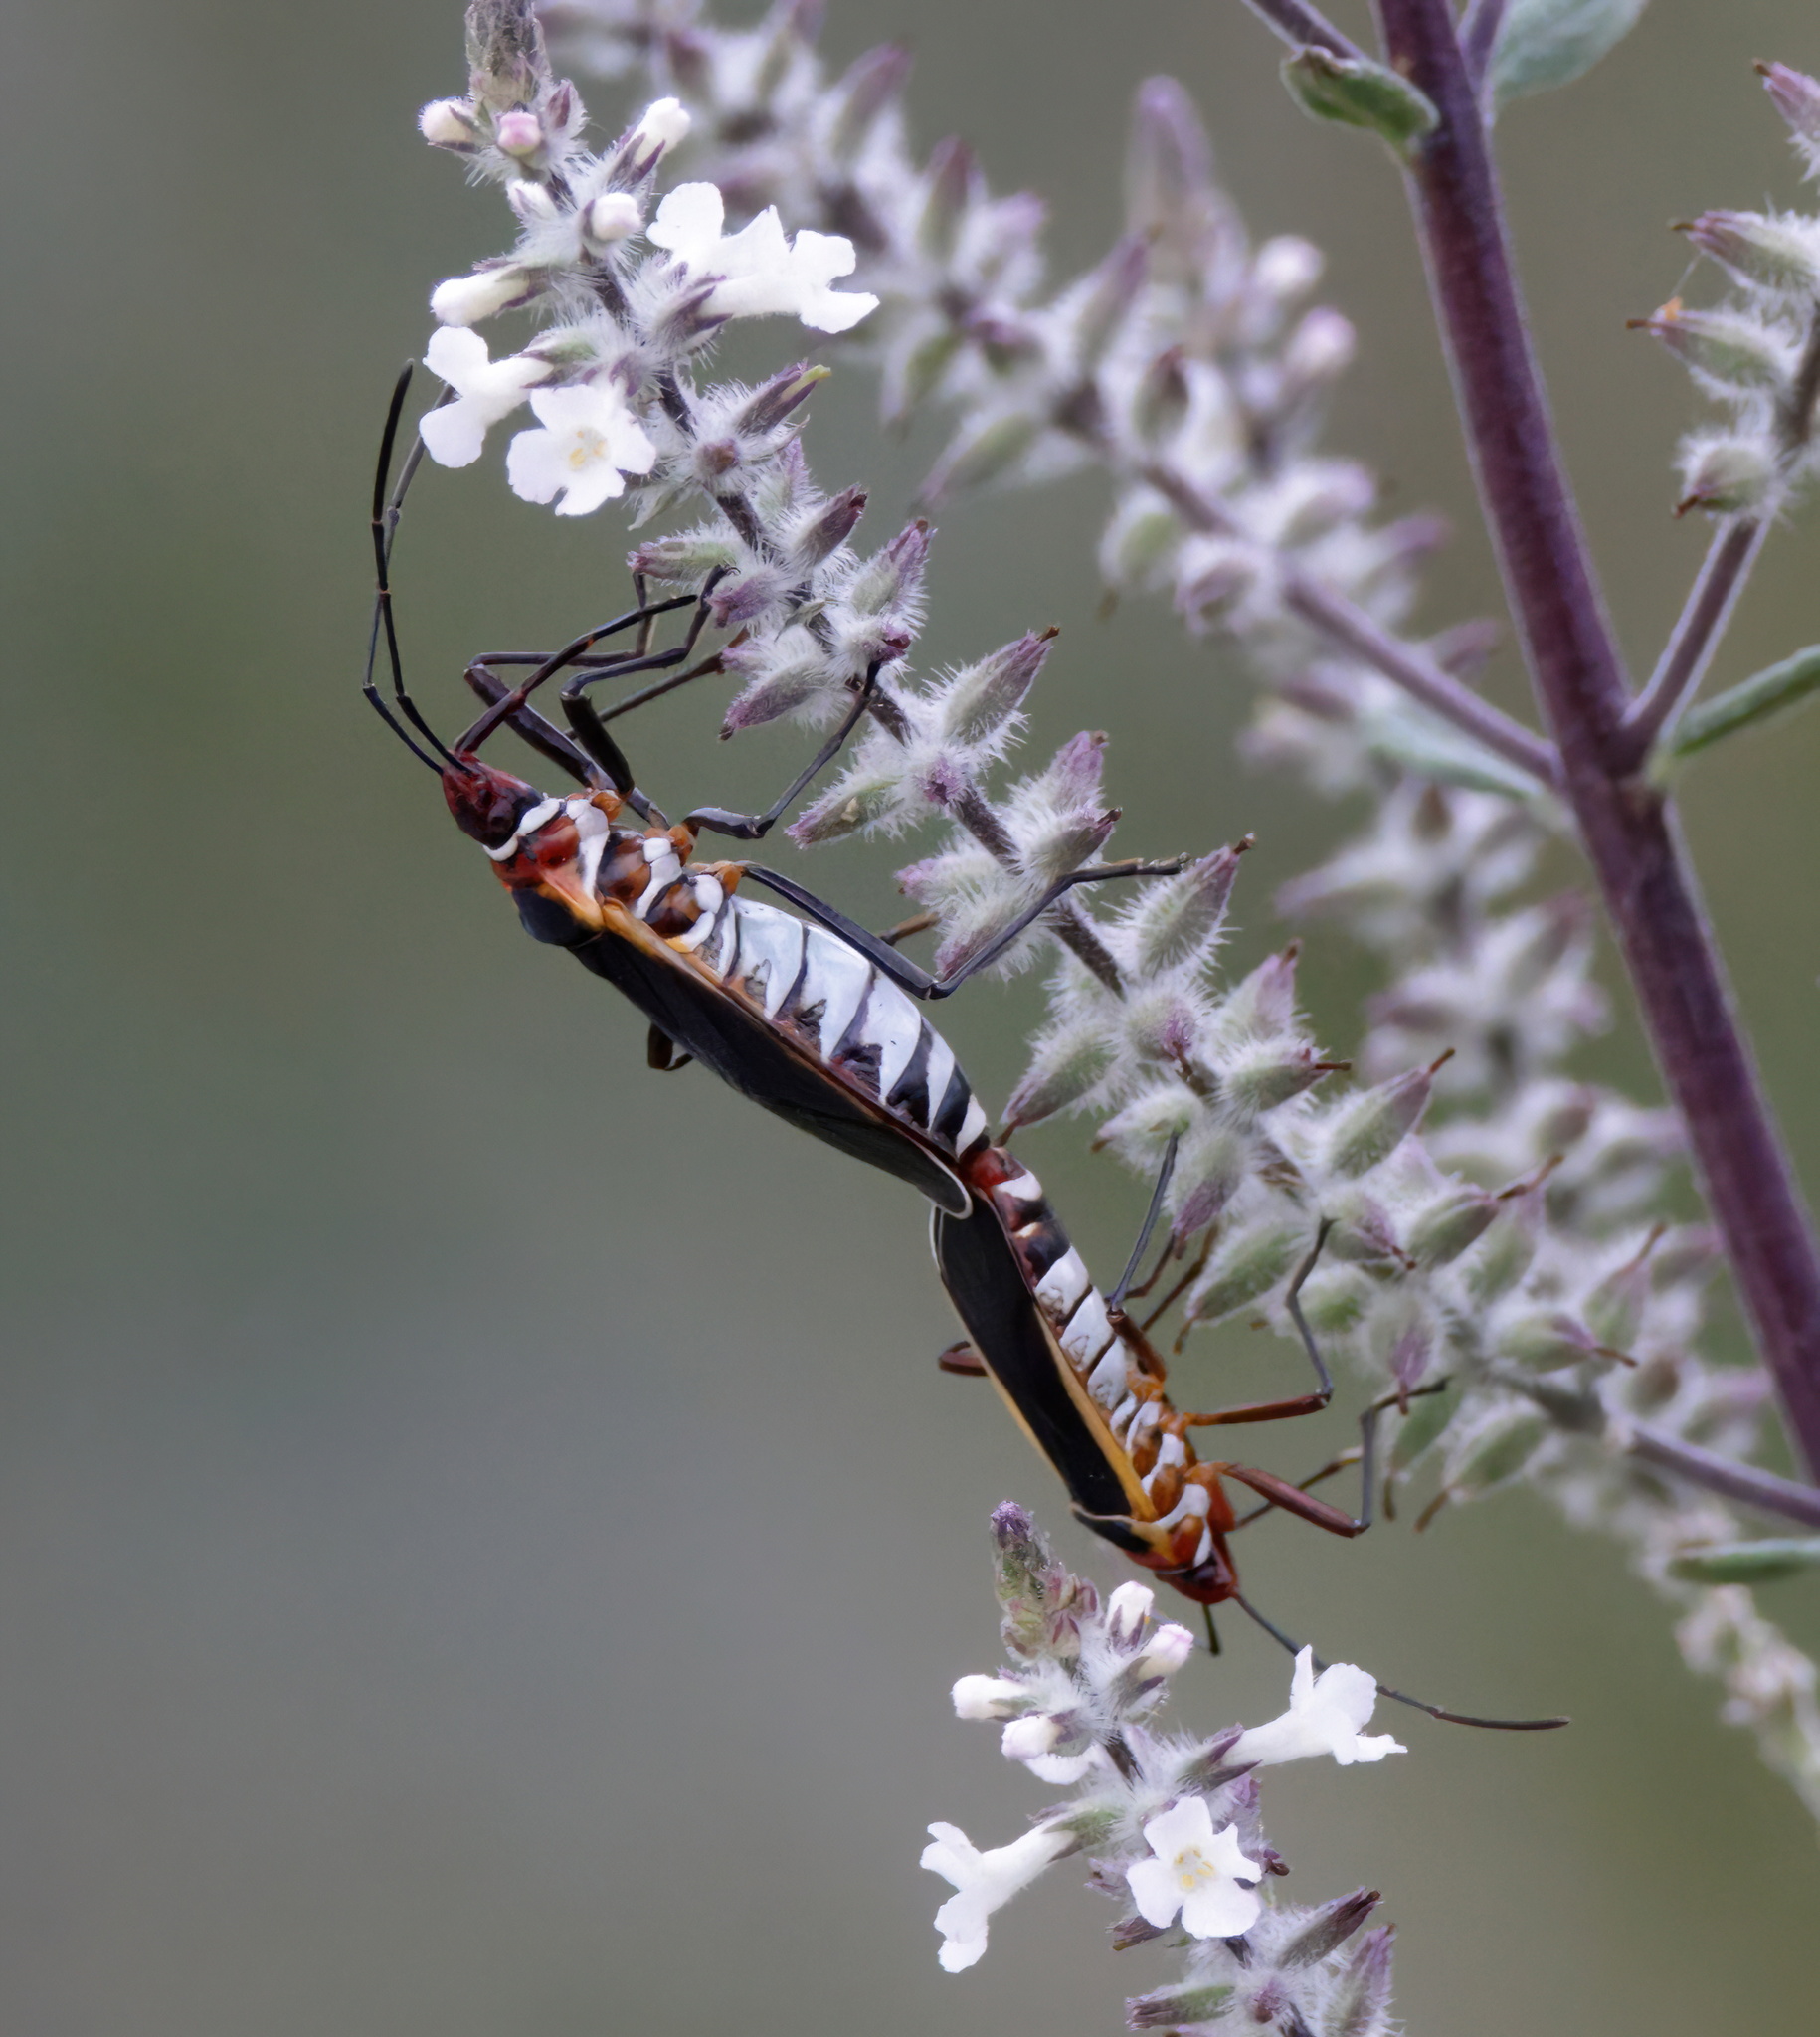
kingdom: Animalia
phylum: Arthropoda
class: Insecta
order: Hemiptera
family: Pyrrhocoridae
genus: Dysdercus
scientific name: Dysdercus mimulus
